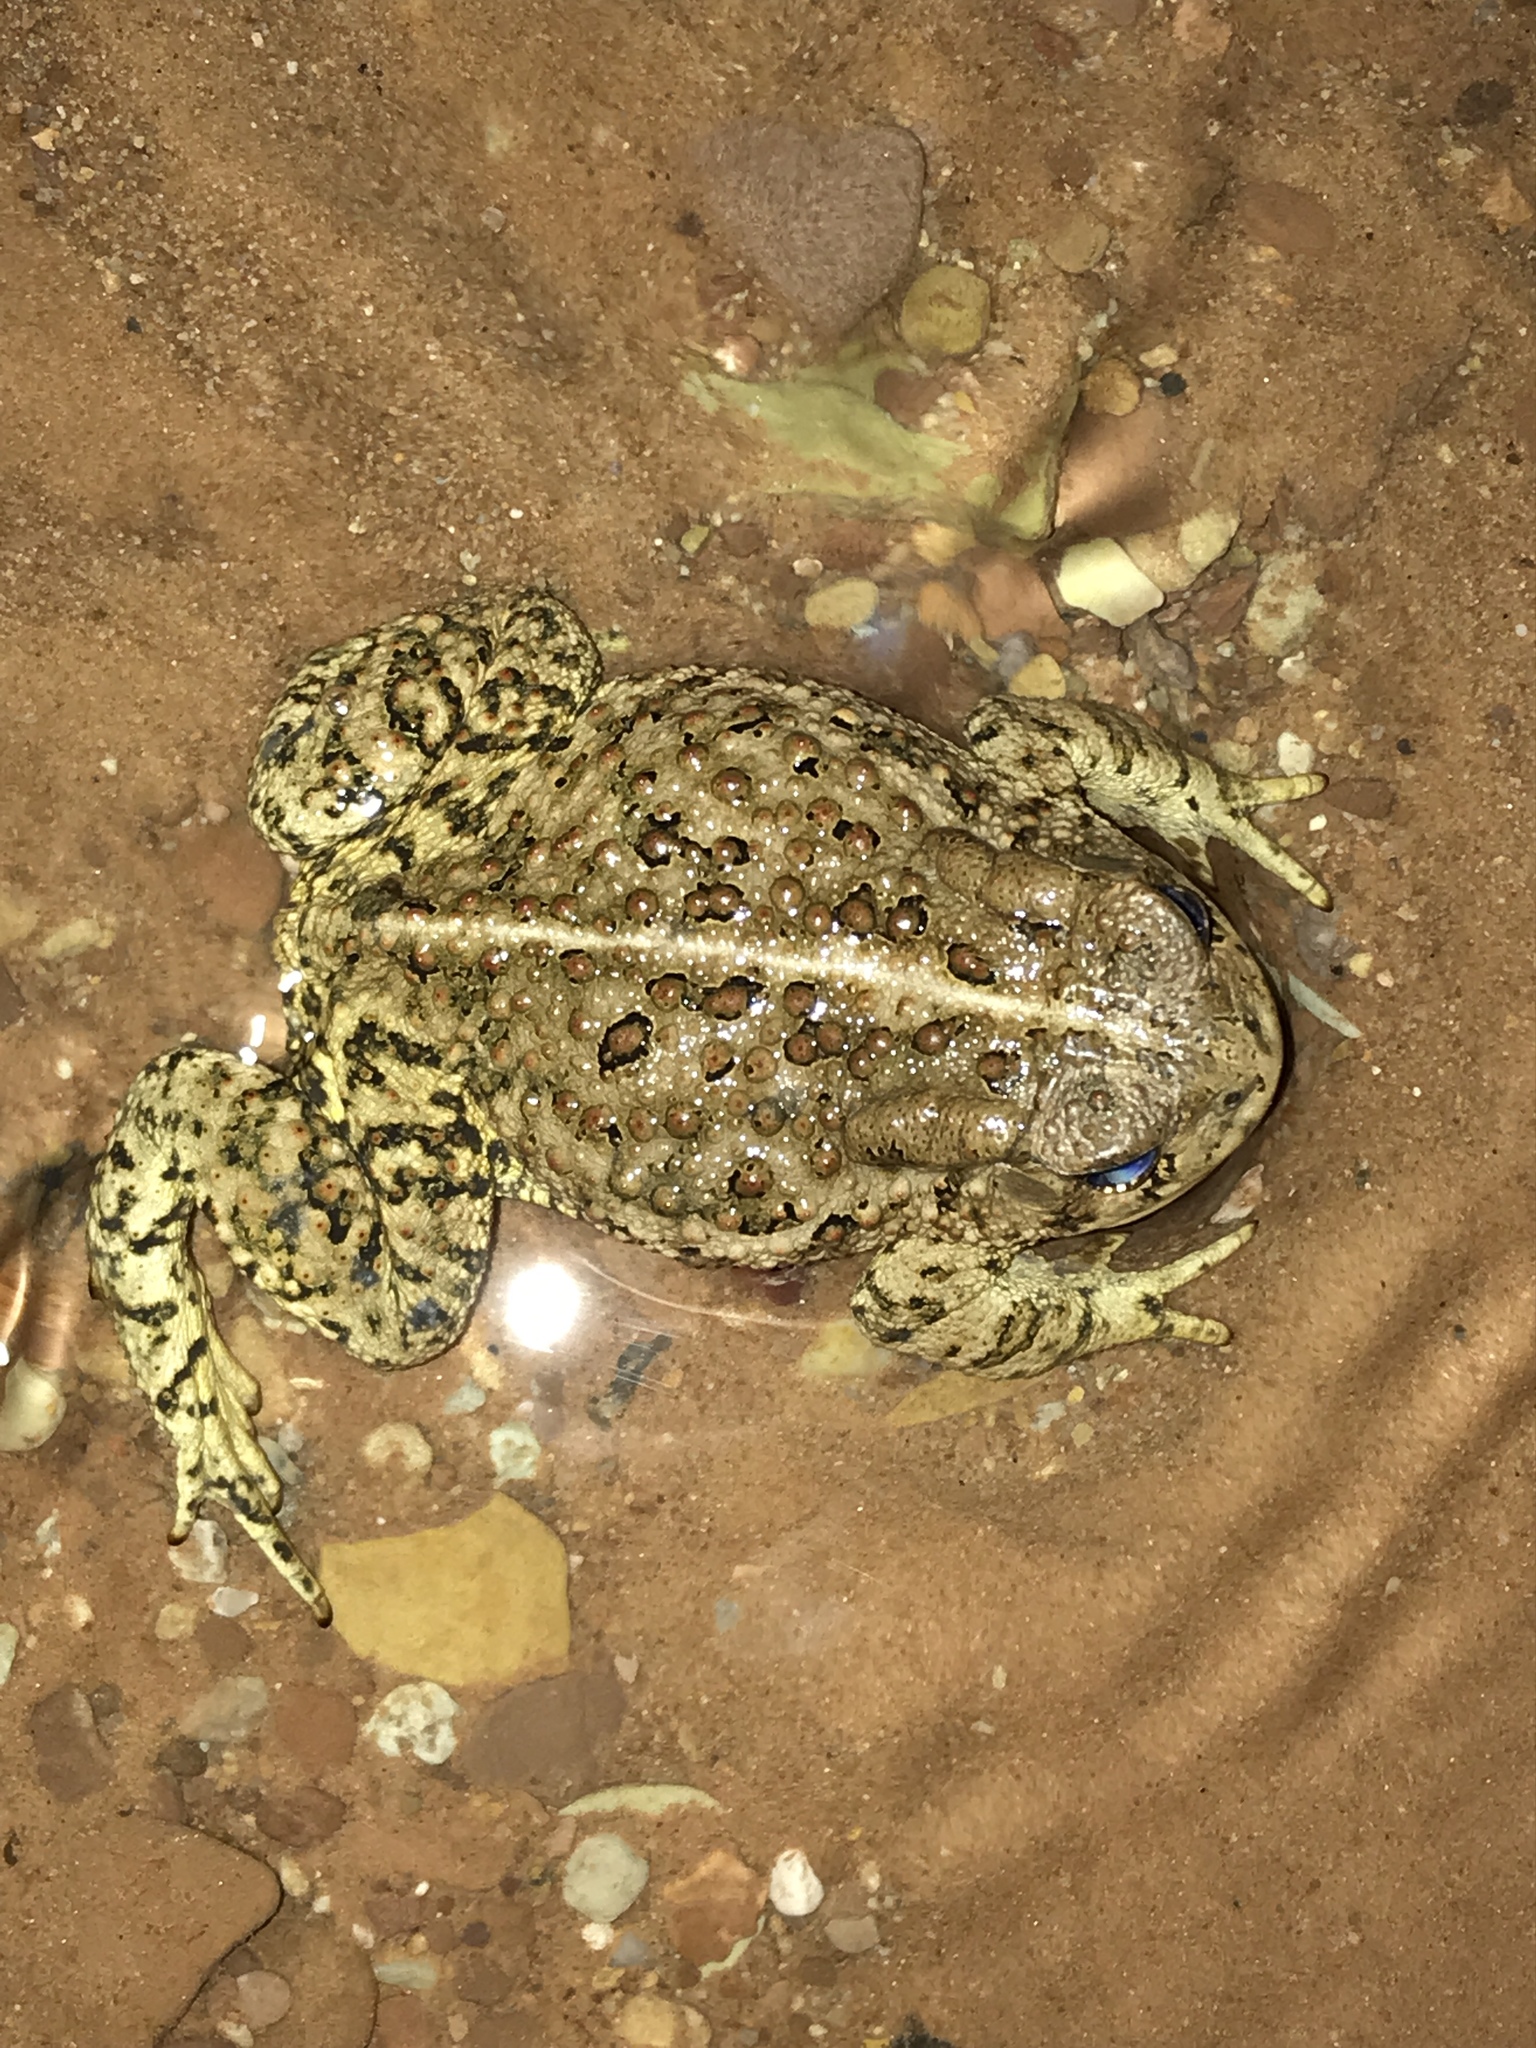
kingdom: Animalia
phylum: Chordata
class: Amphibia
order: Anura
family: Bufonidae
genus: Anaxyrus
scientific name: Anaxyrus woodhousii
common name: Woodhouse's toad
